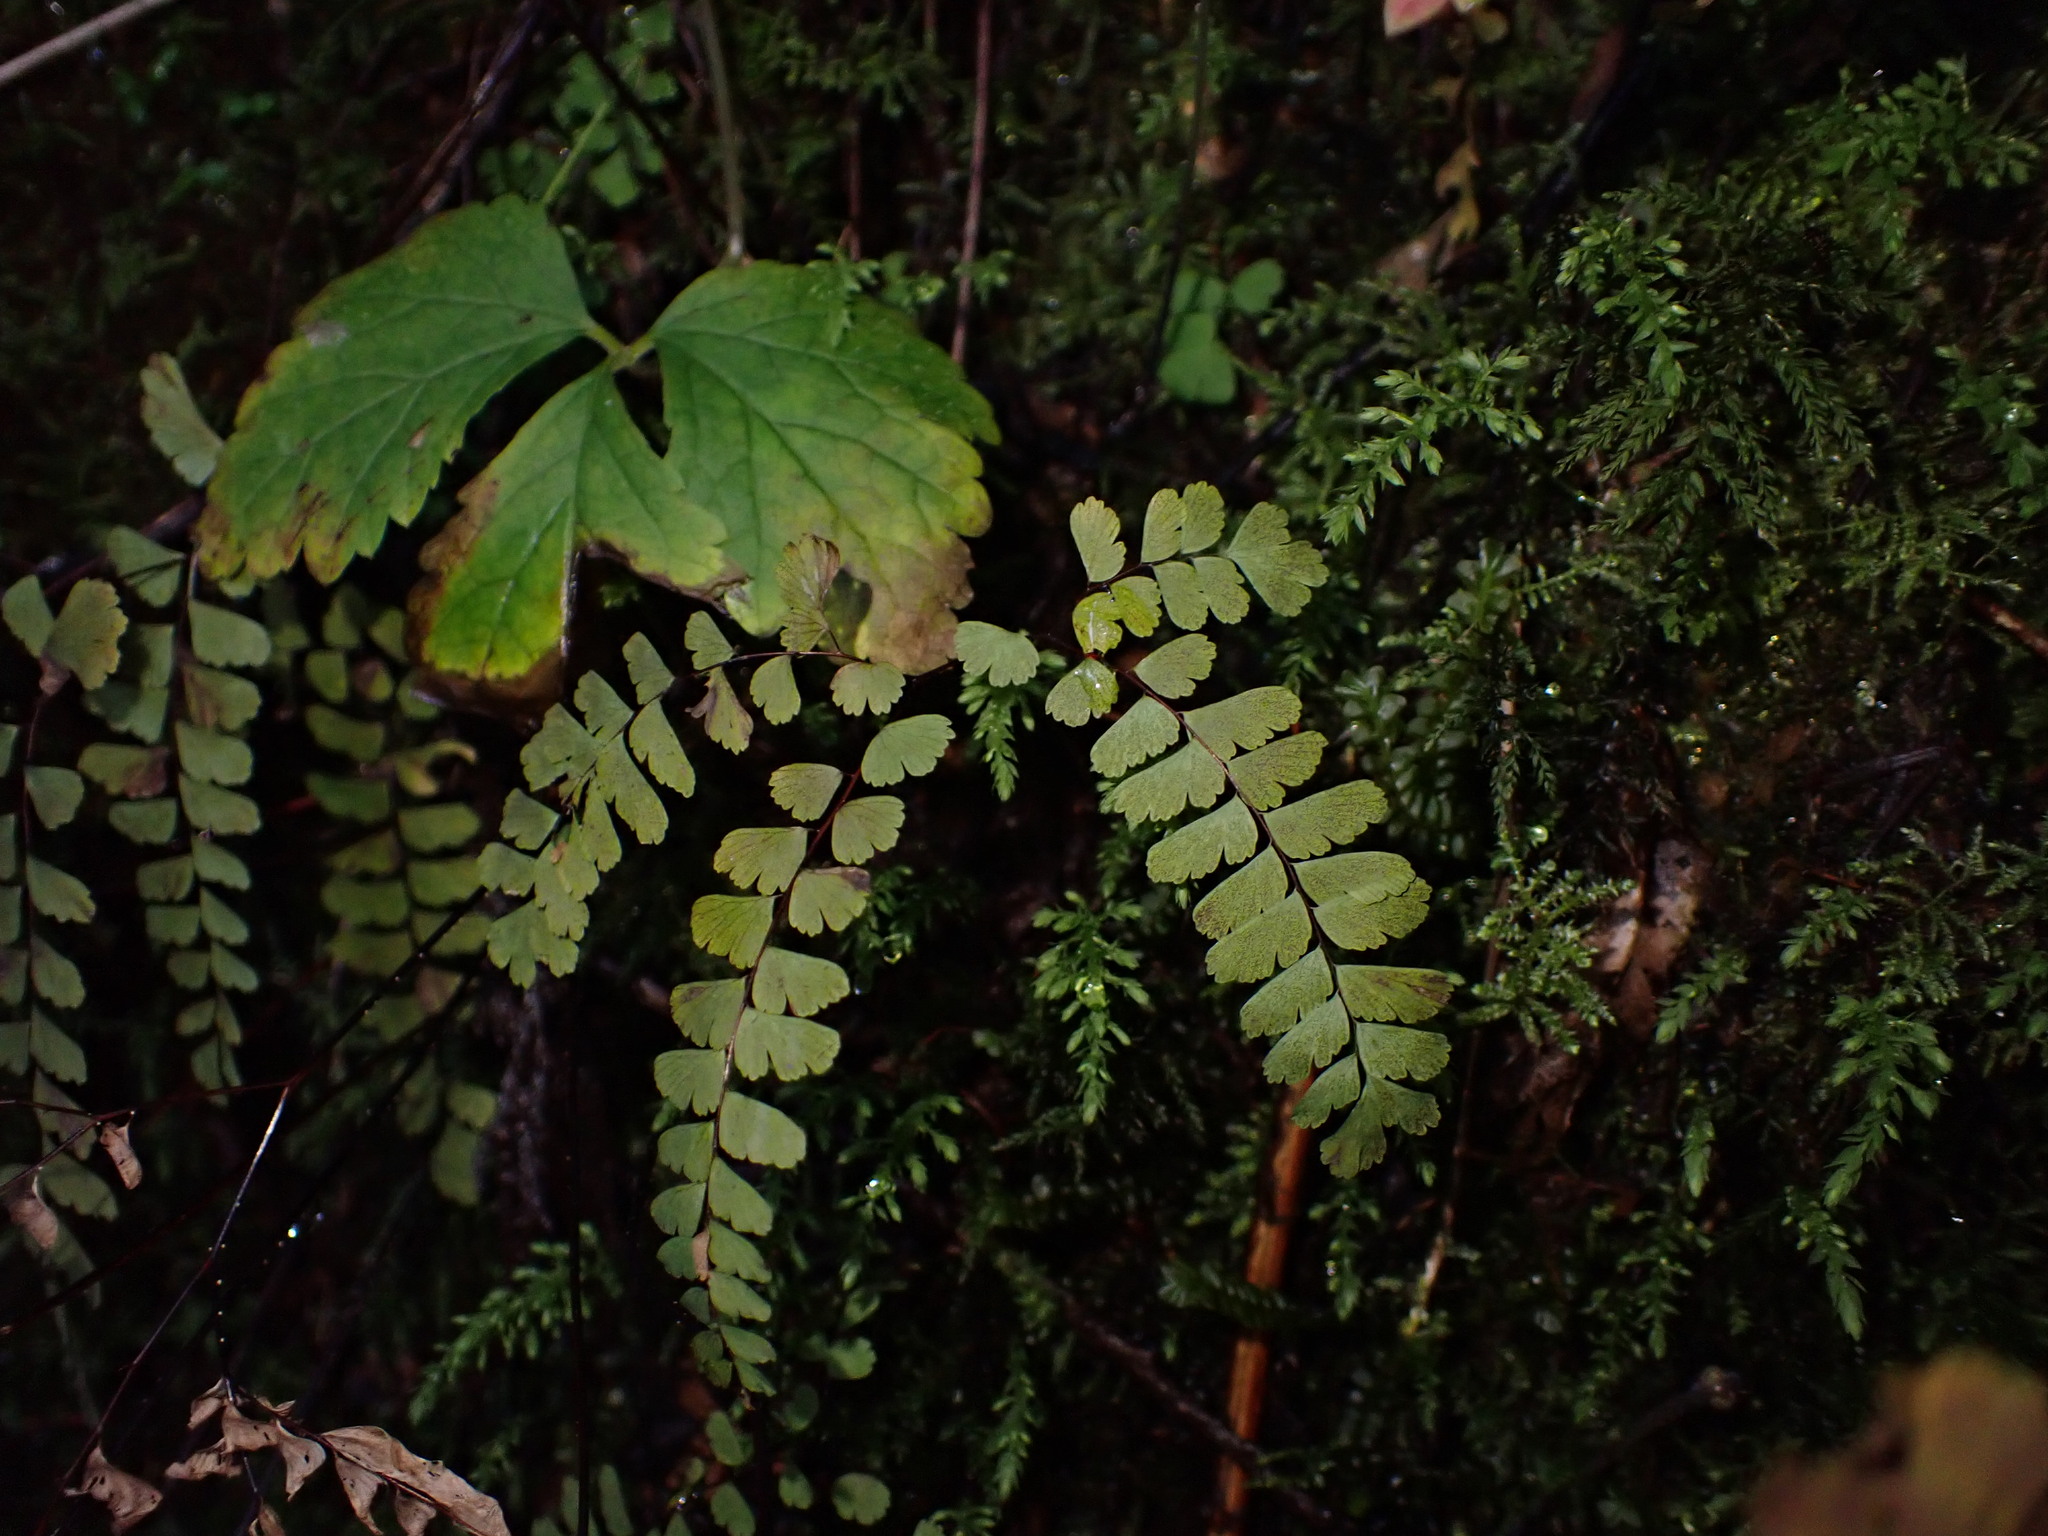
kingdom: Plantae
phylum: Tracheophyta
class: Polypodiopsida
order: Polypodiales
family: Pteridaceae
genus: Adiantum
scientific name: Adiantum aleuticum
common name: Aleutian maidenhair fern
